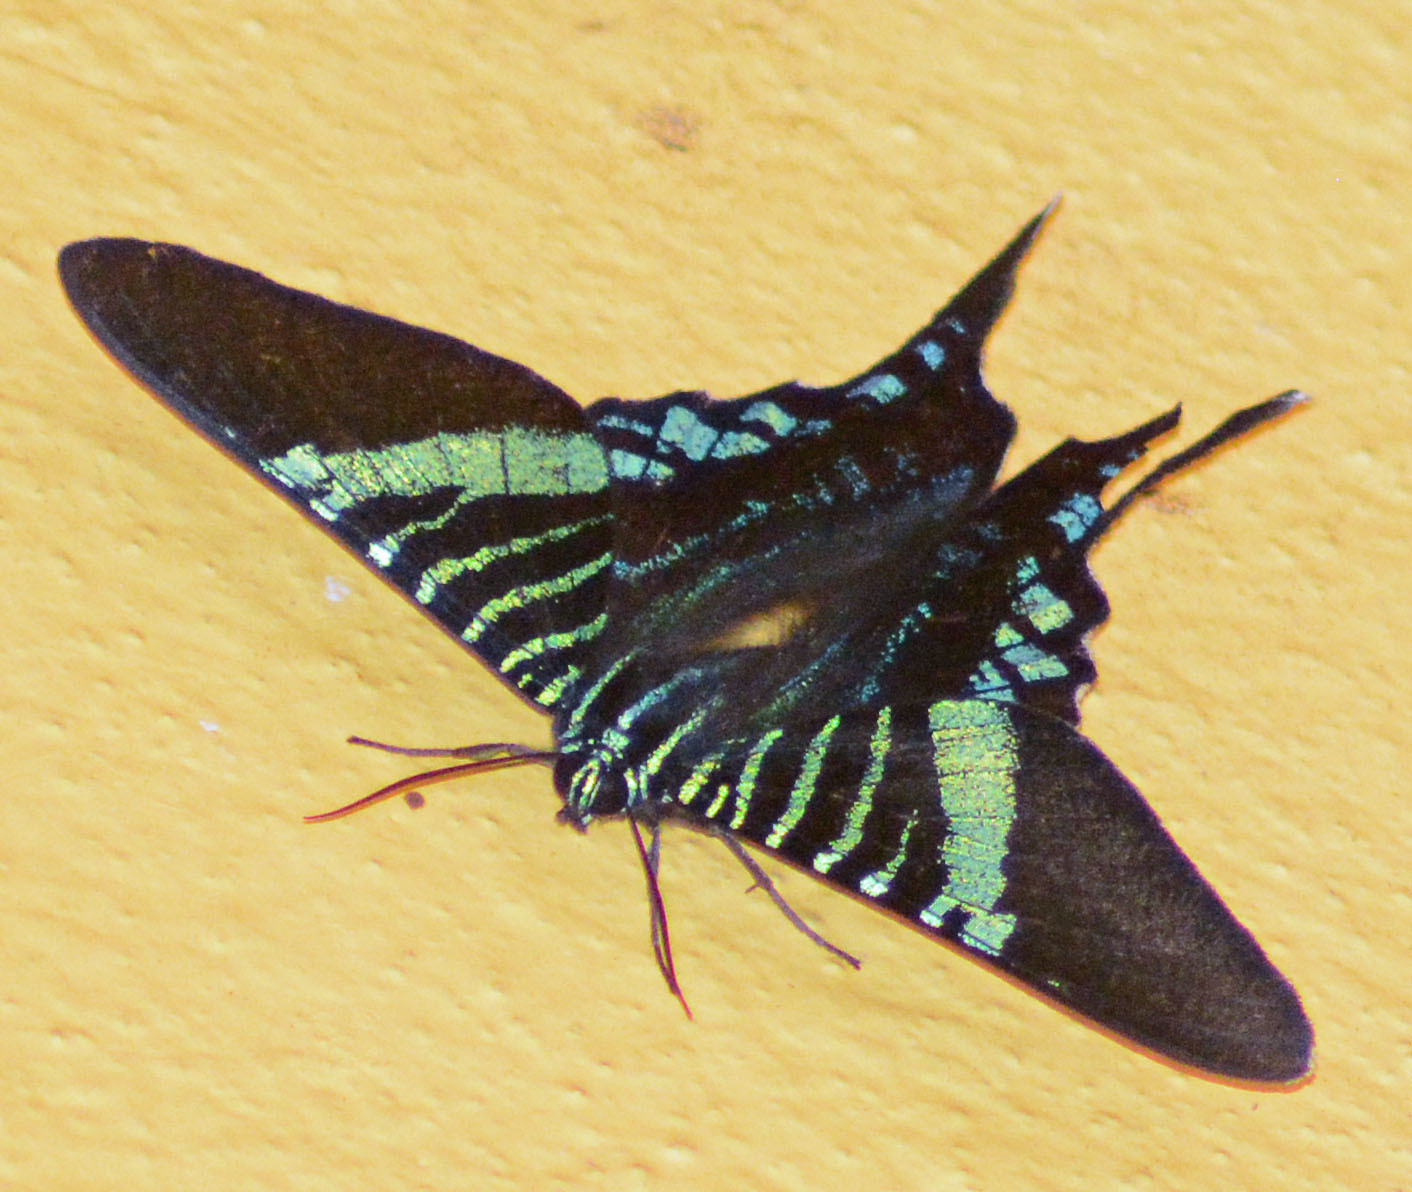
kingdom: Animalia
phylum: Arthropoda
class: Insecta
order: Lepidoptera
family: Uraniidae
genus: Urania
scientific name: Urania fulgens
